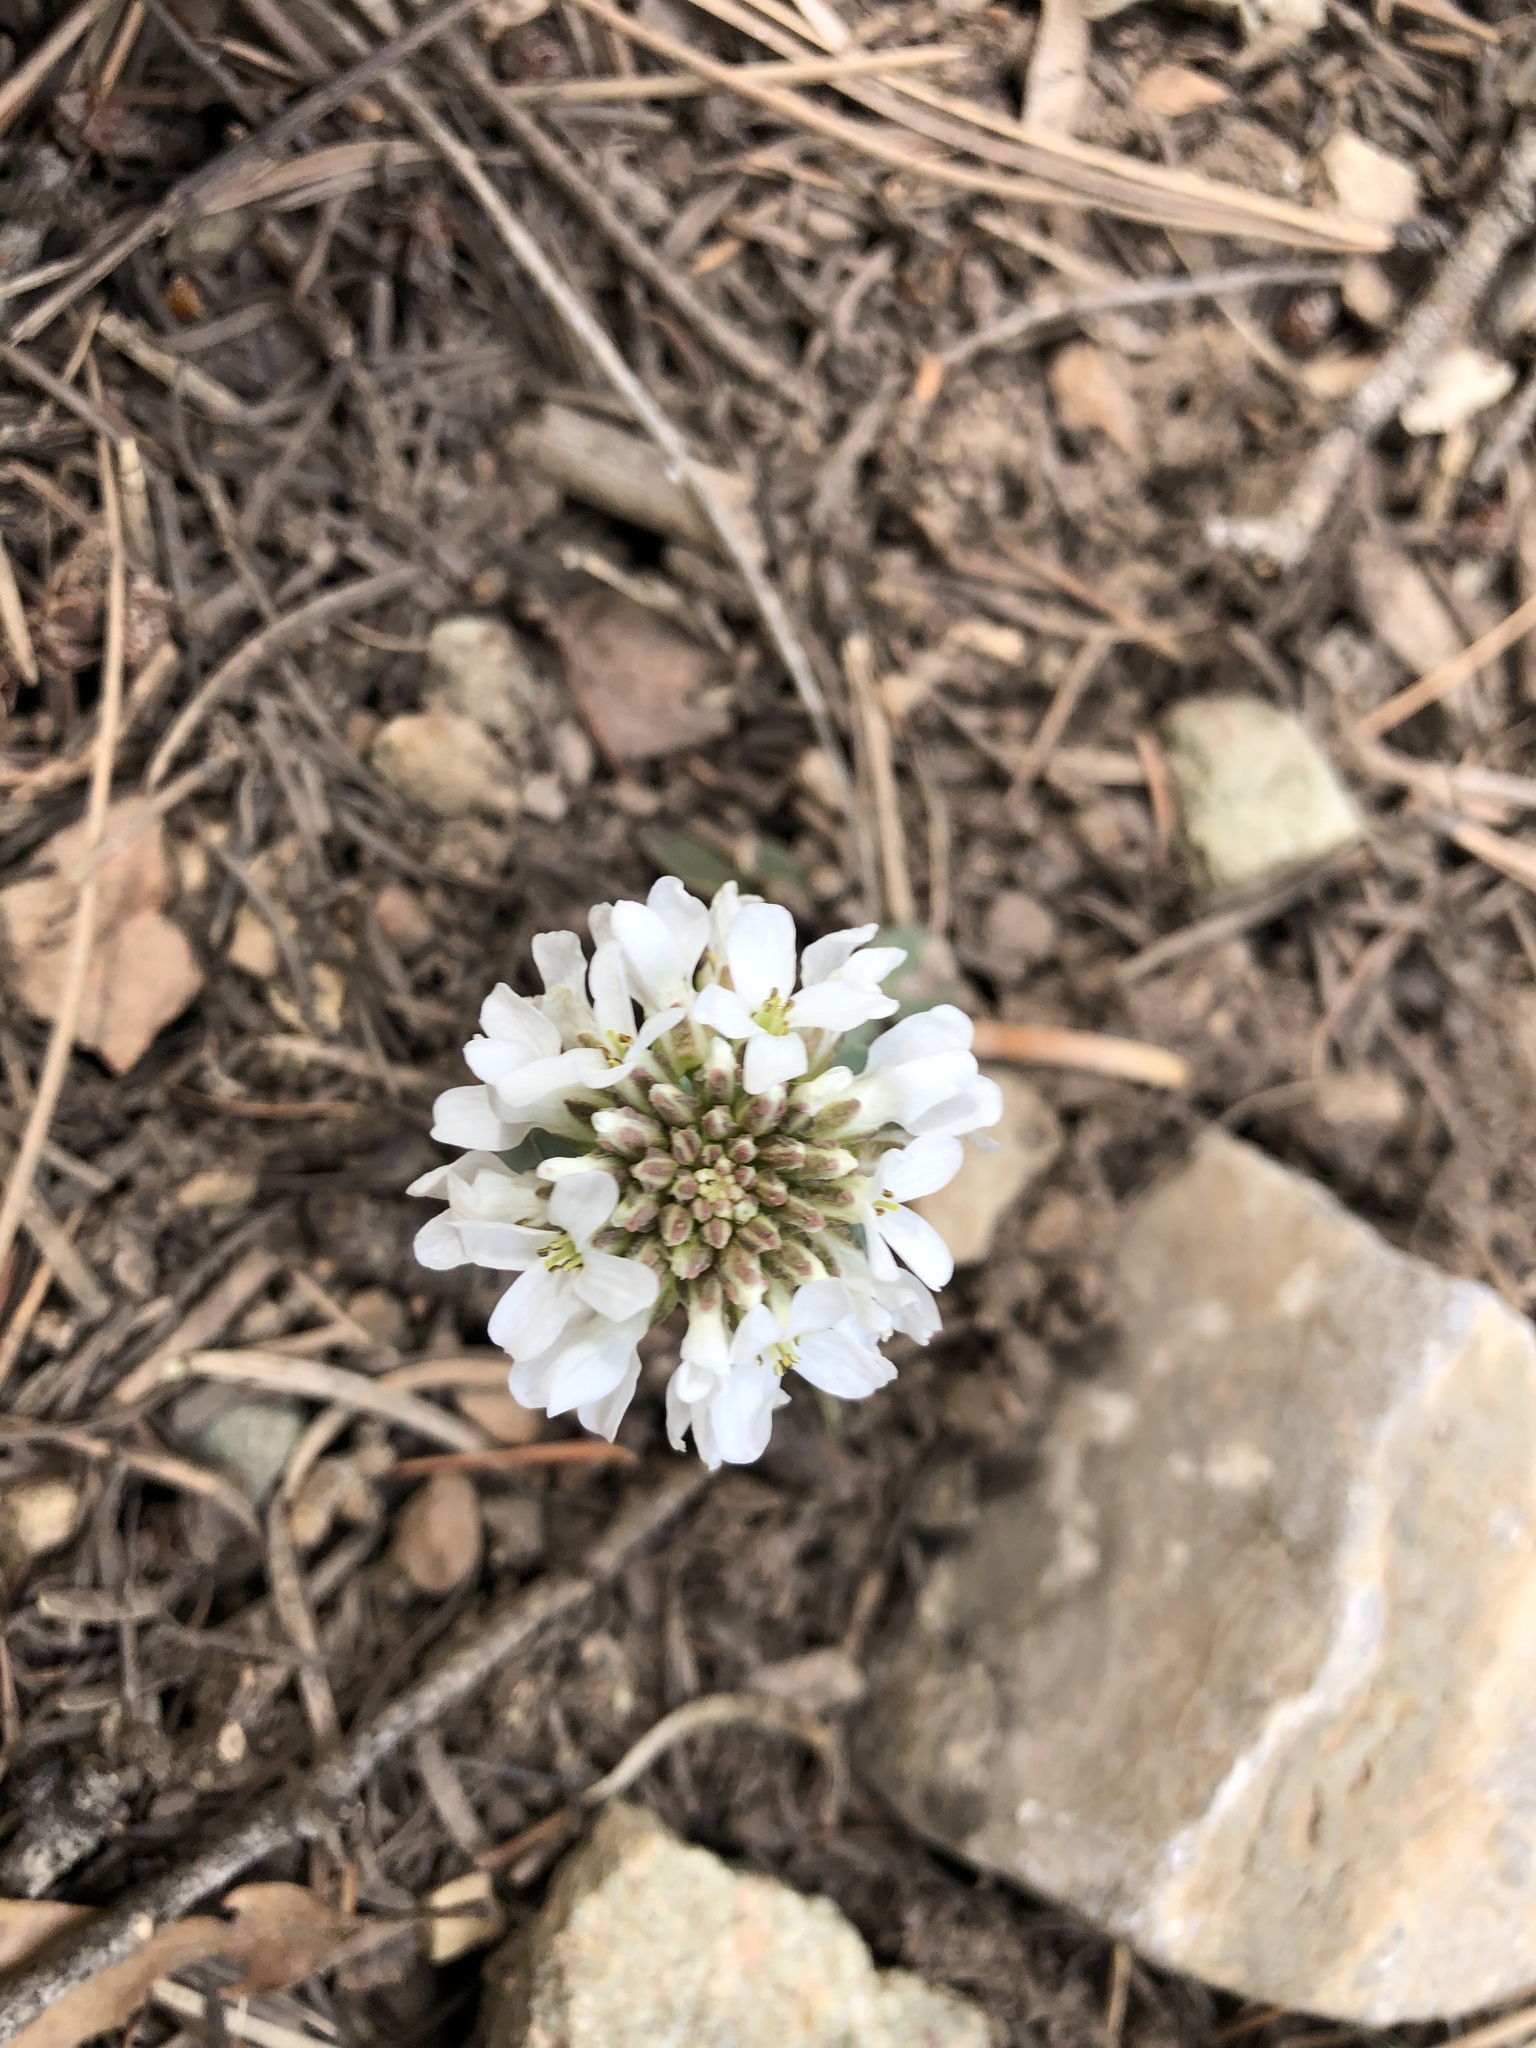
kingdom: Plantae
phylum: Tracheophyta
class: Magnoliopsida
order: Brassicales
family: Brassicaceae
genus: Noccaea
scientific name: Noccaea fendleri
